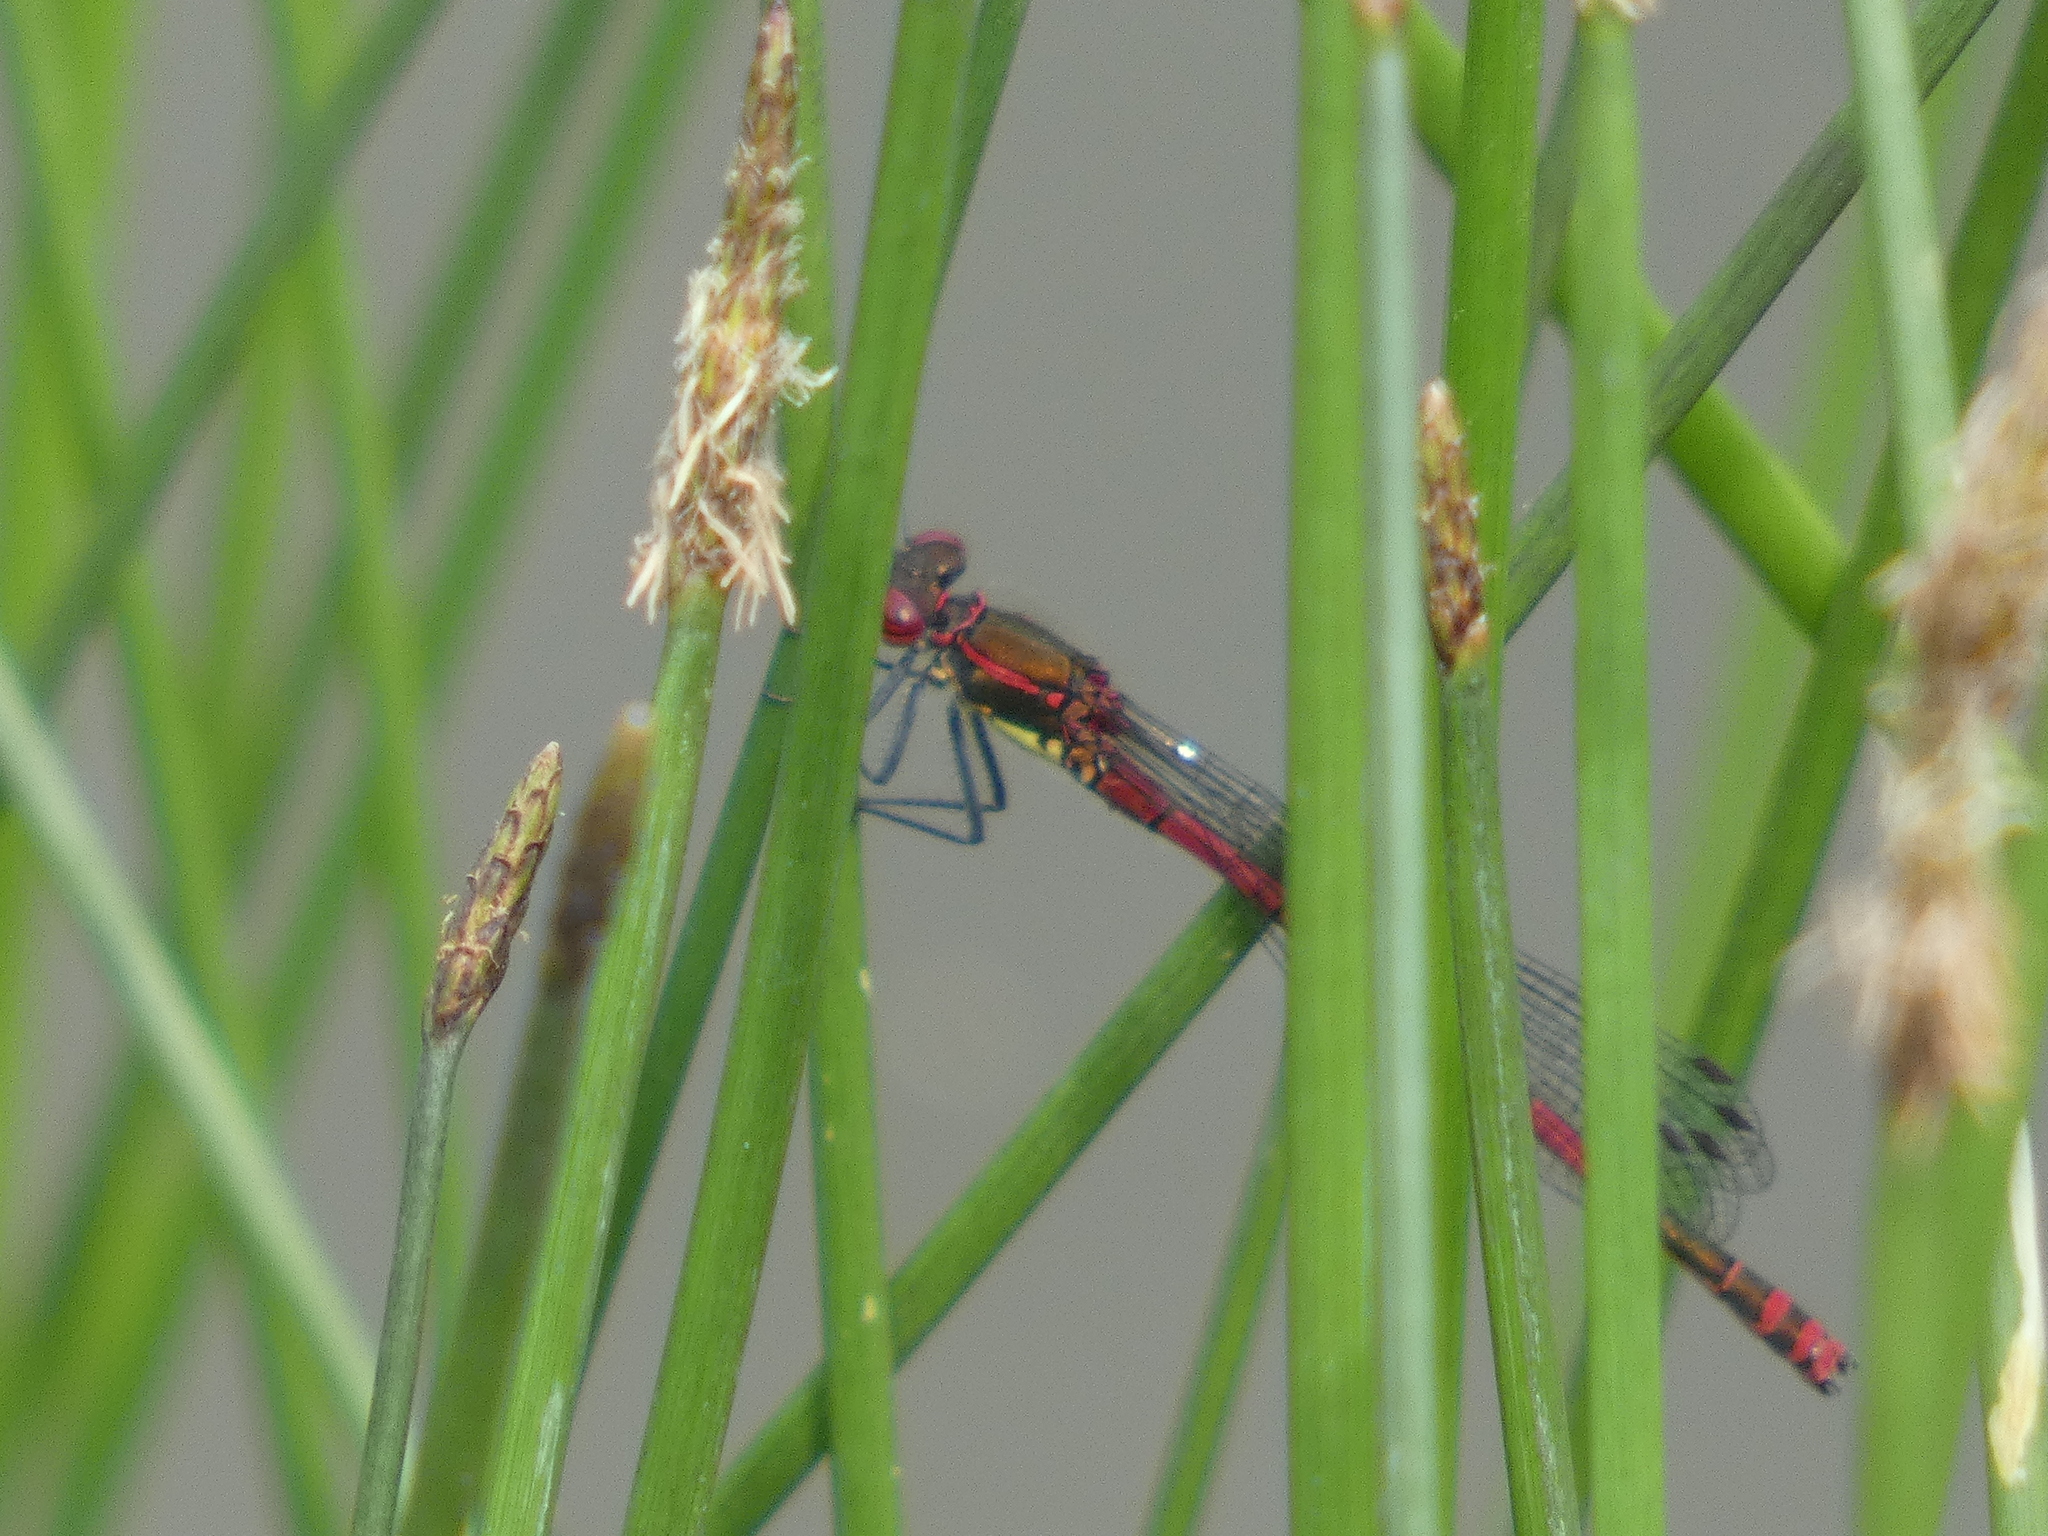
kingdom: Animalia
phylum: Arthropoda
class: Insecta
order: Odonata
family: Coenagrionidae
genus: Pyrrhosoma
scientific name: Pyrrhosoma nymphula
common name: Large red damsel
